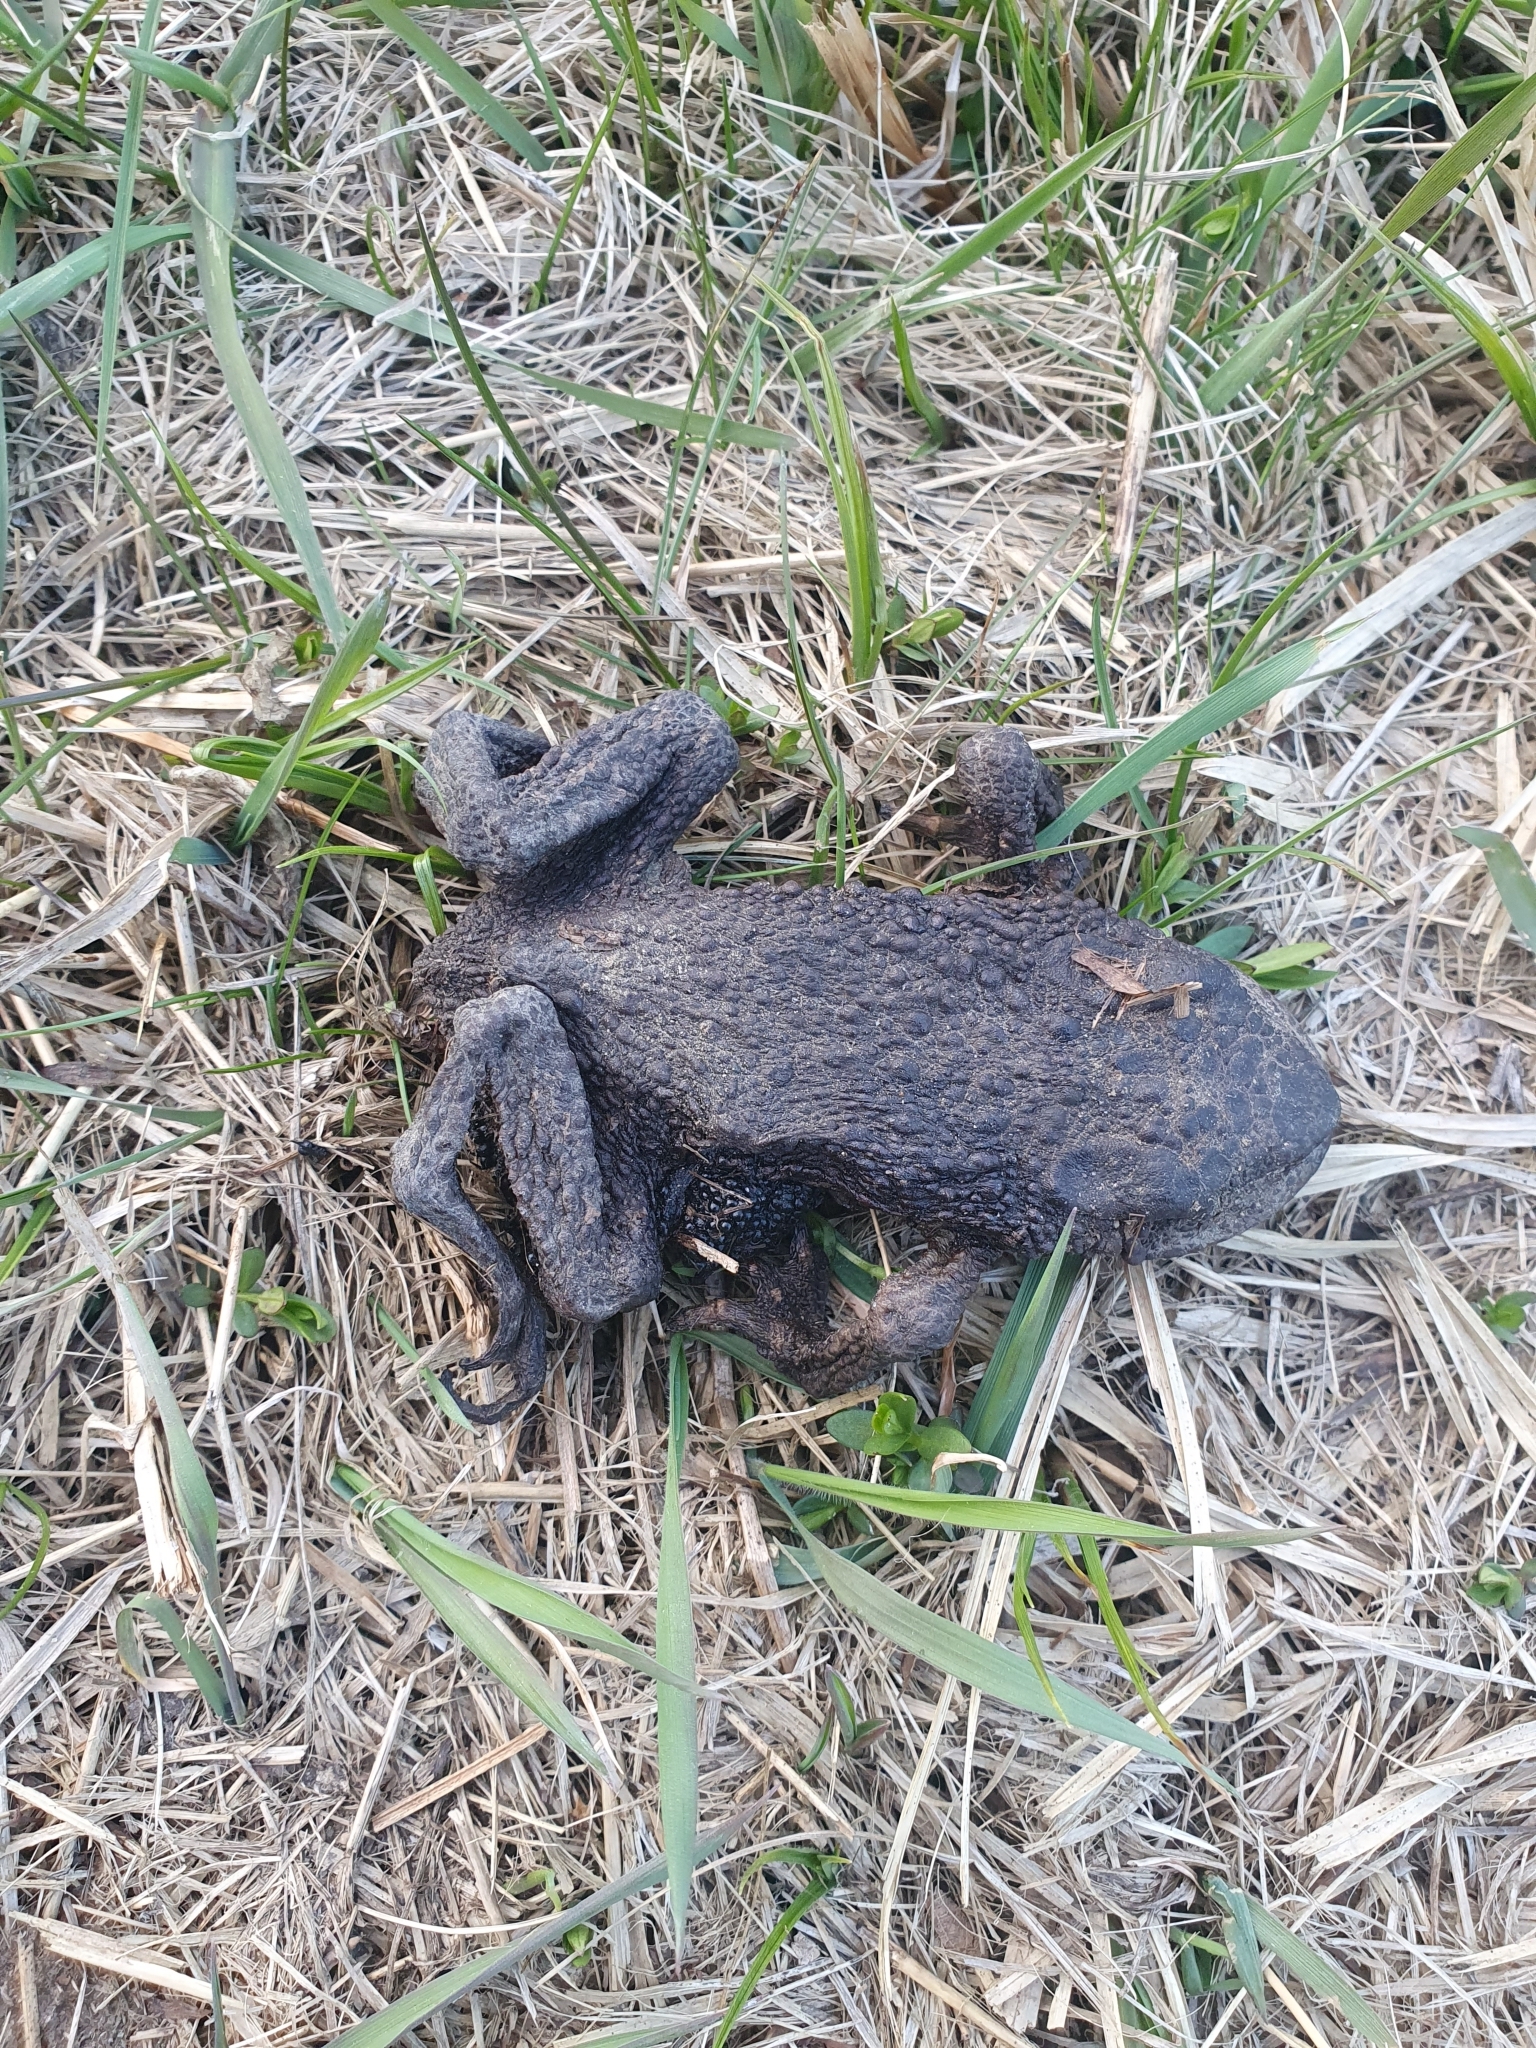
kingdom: Animalia
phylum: Chordata
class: Amphibia
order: Anura
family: Bufonidae
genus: Bufo
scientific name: Bufo bufo
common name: Common toad
